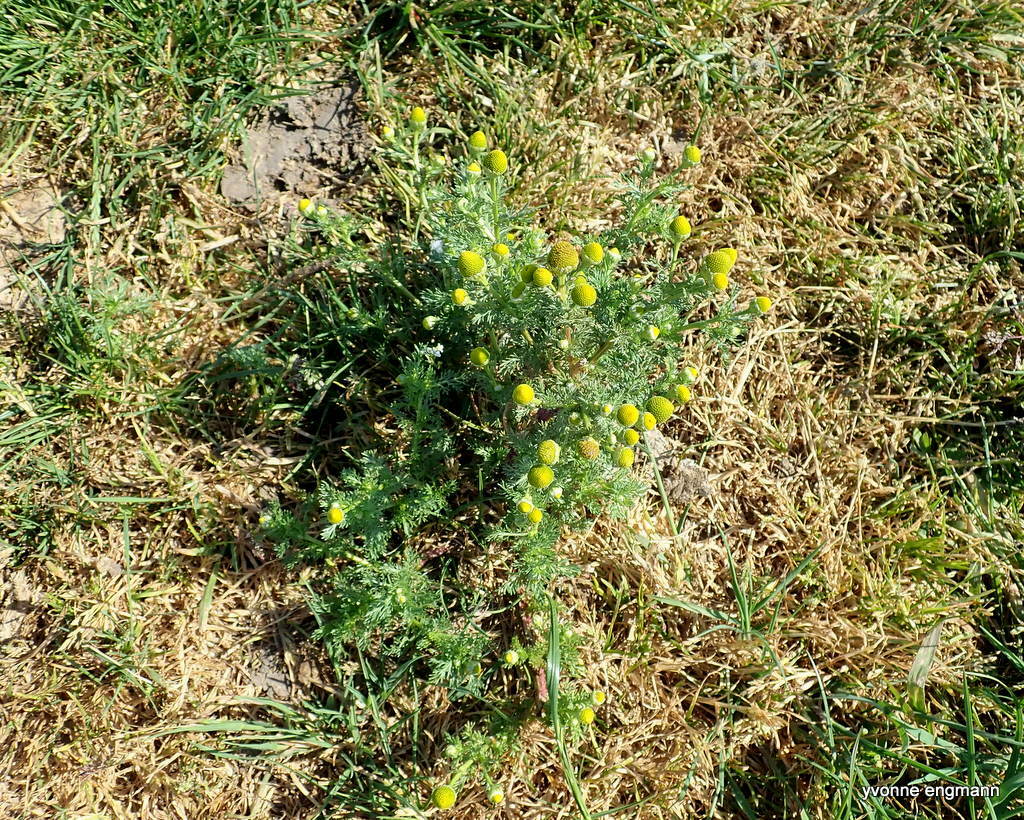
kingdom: Plantae
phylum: Tracheophyta
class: Magnoliopsida
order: Asterales
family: Asteraceae
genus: Matricaria
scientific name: Matricaria discoidea
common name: Disc mayweed
